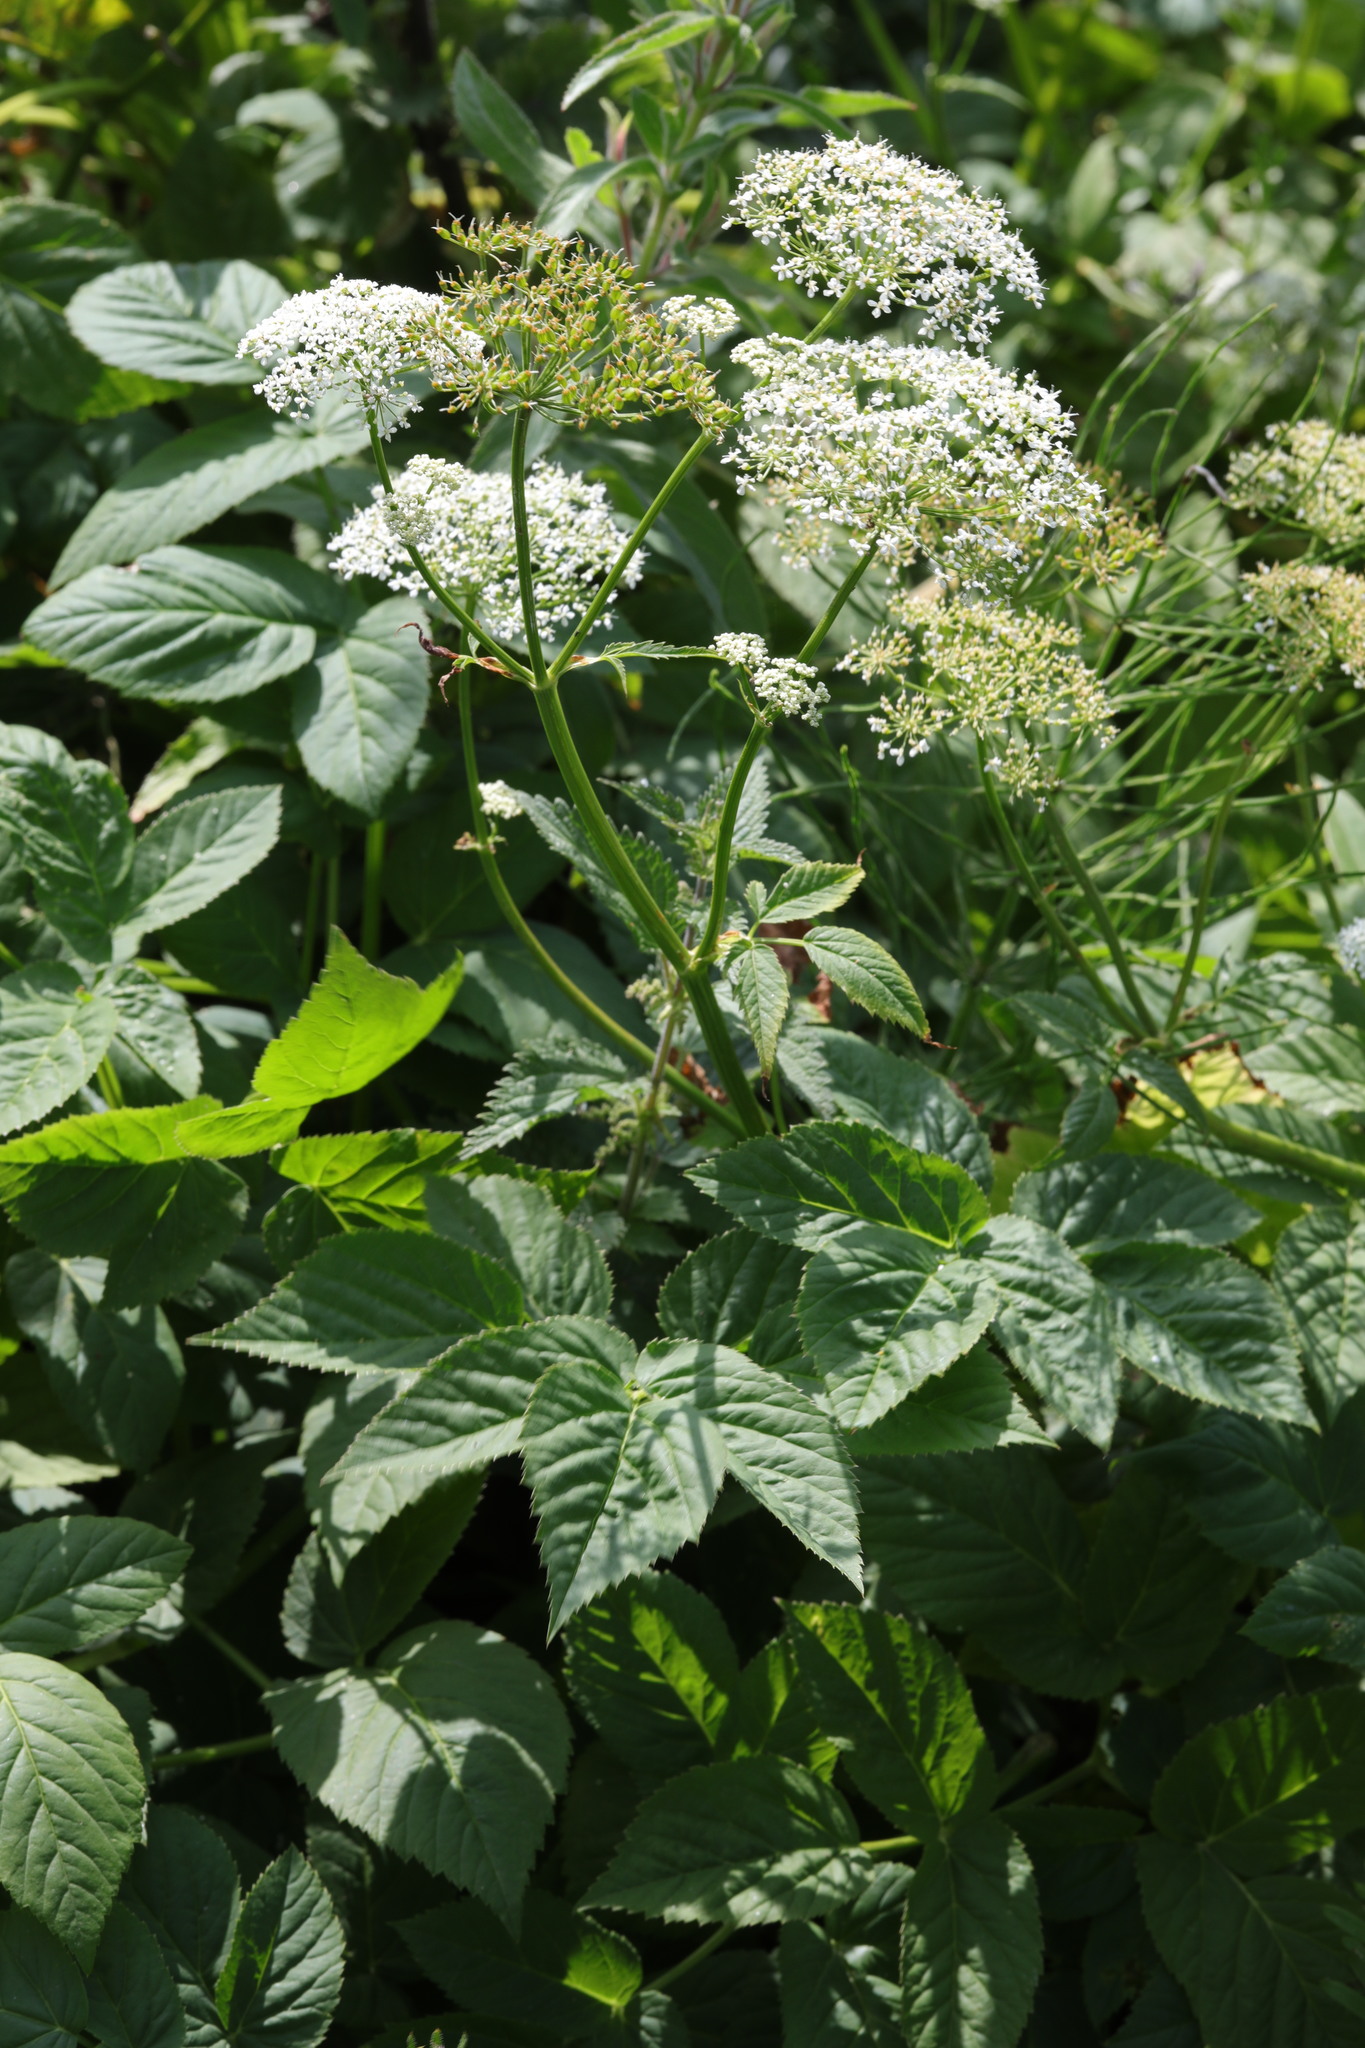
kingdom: Plantae
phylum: Tracheophyta
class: Magnoliopsida
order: Apiales
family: Apiaceae
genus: Aegopodium
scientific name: Aegopodium podagraria
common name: Ground-elder
